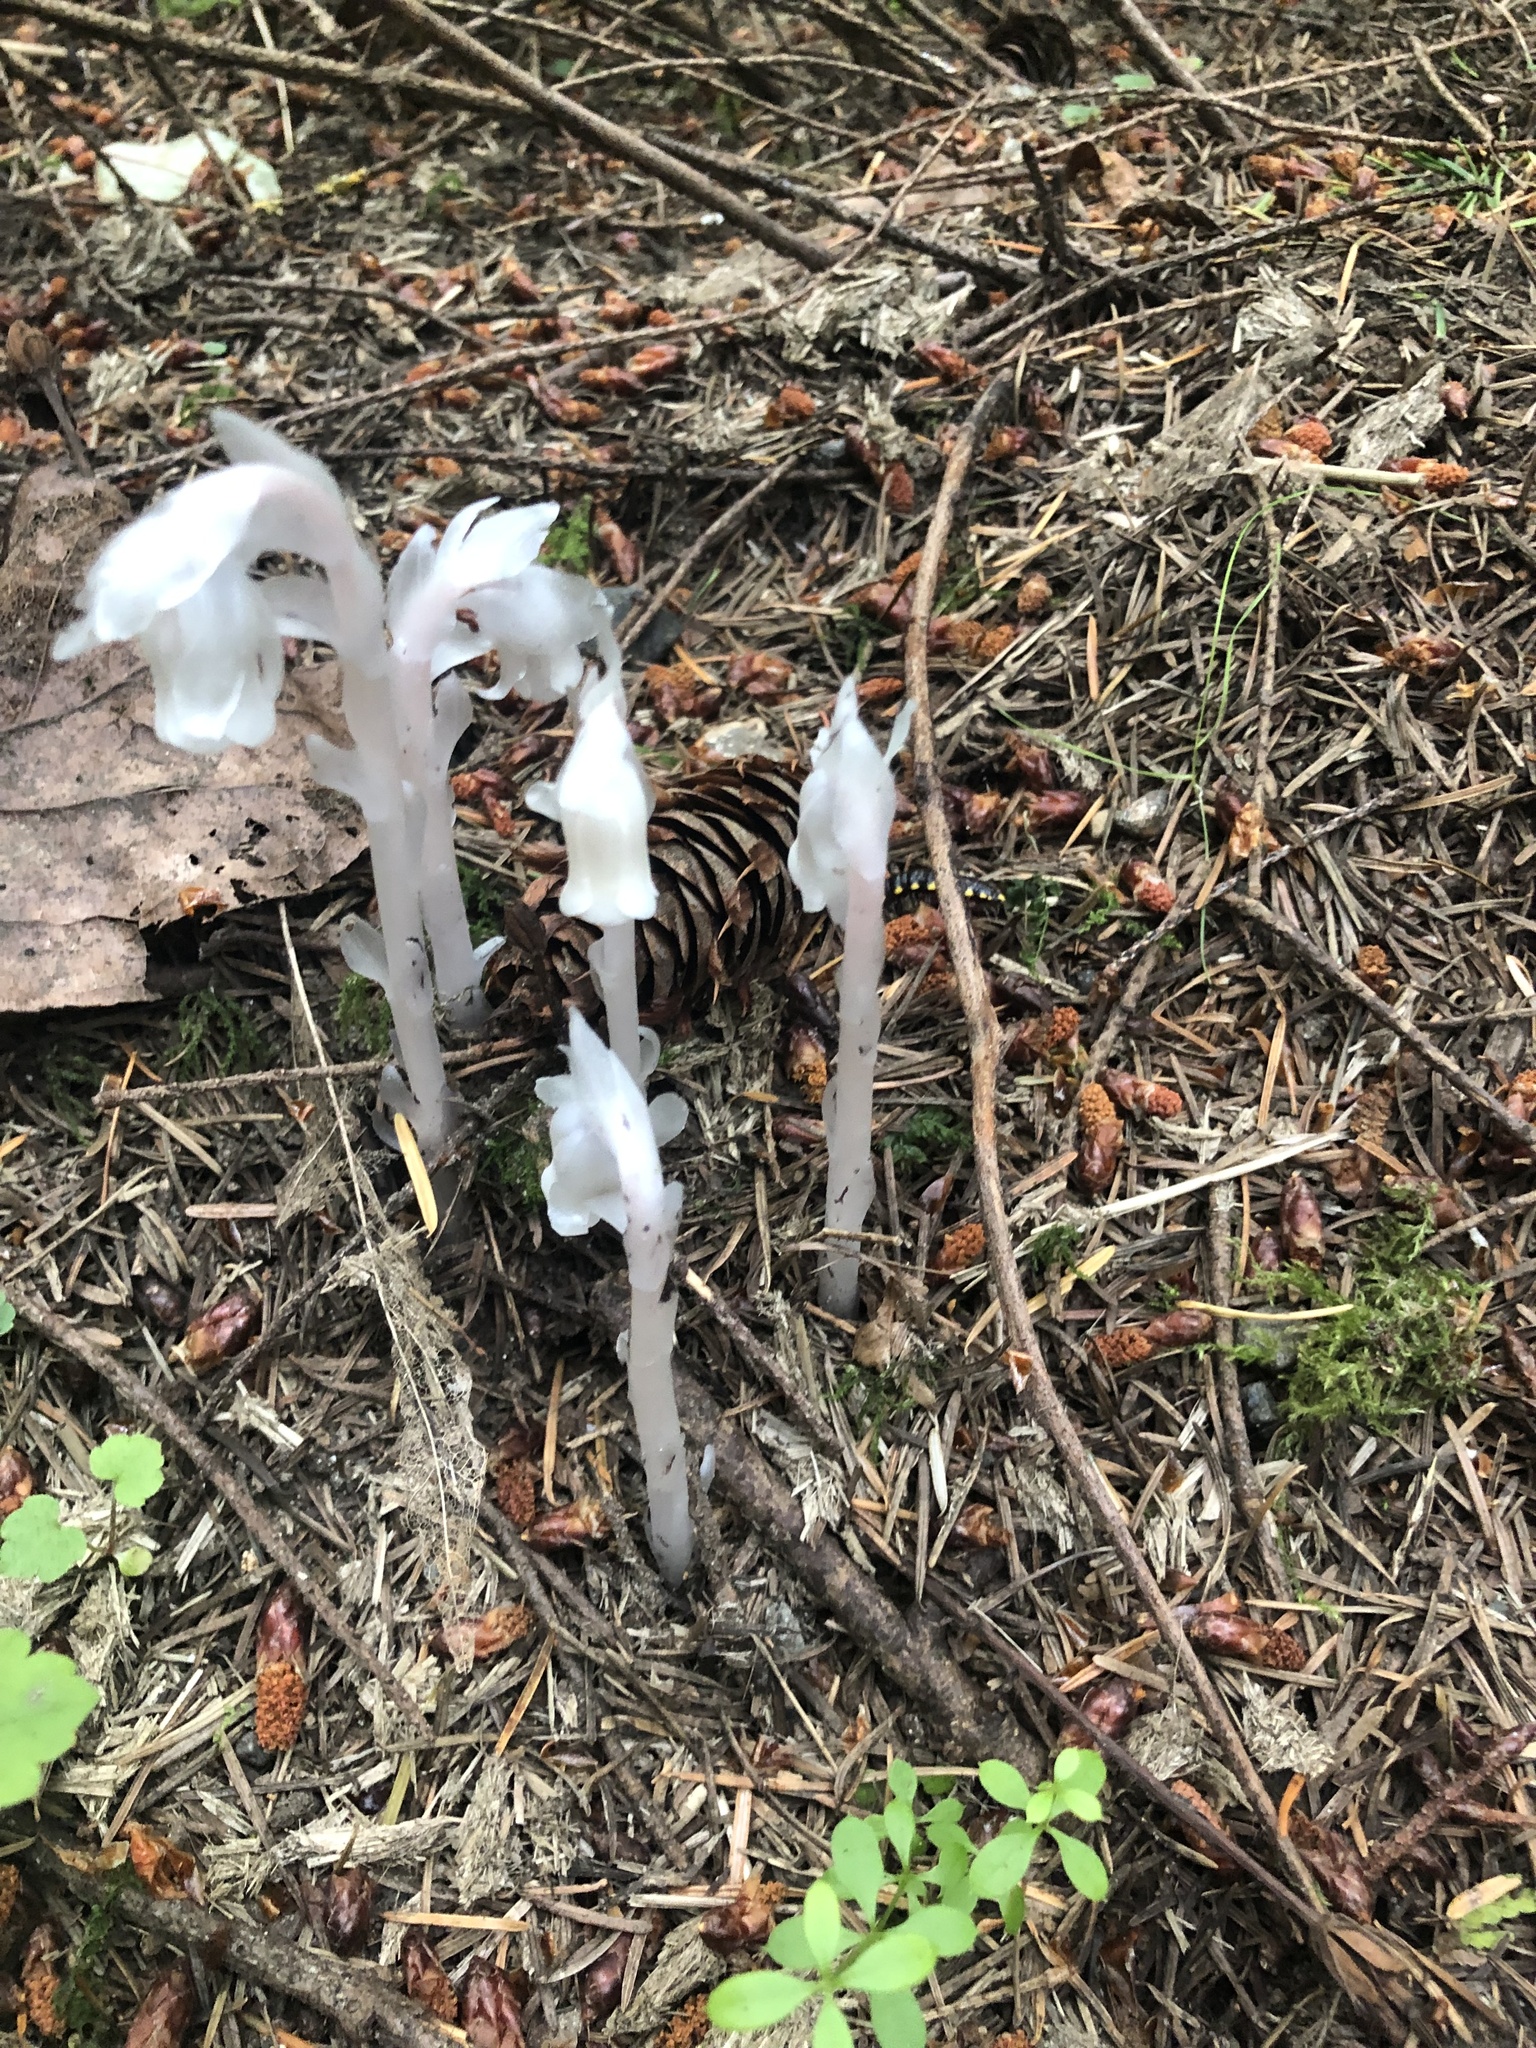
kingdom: Plantae
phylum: Tracheophyta
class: Magnoliopsida
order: Ericales
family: Ericaceae
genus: Monotropa
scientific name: Monotropa uniflora
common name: Convulsion root
